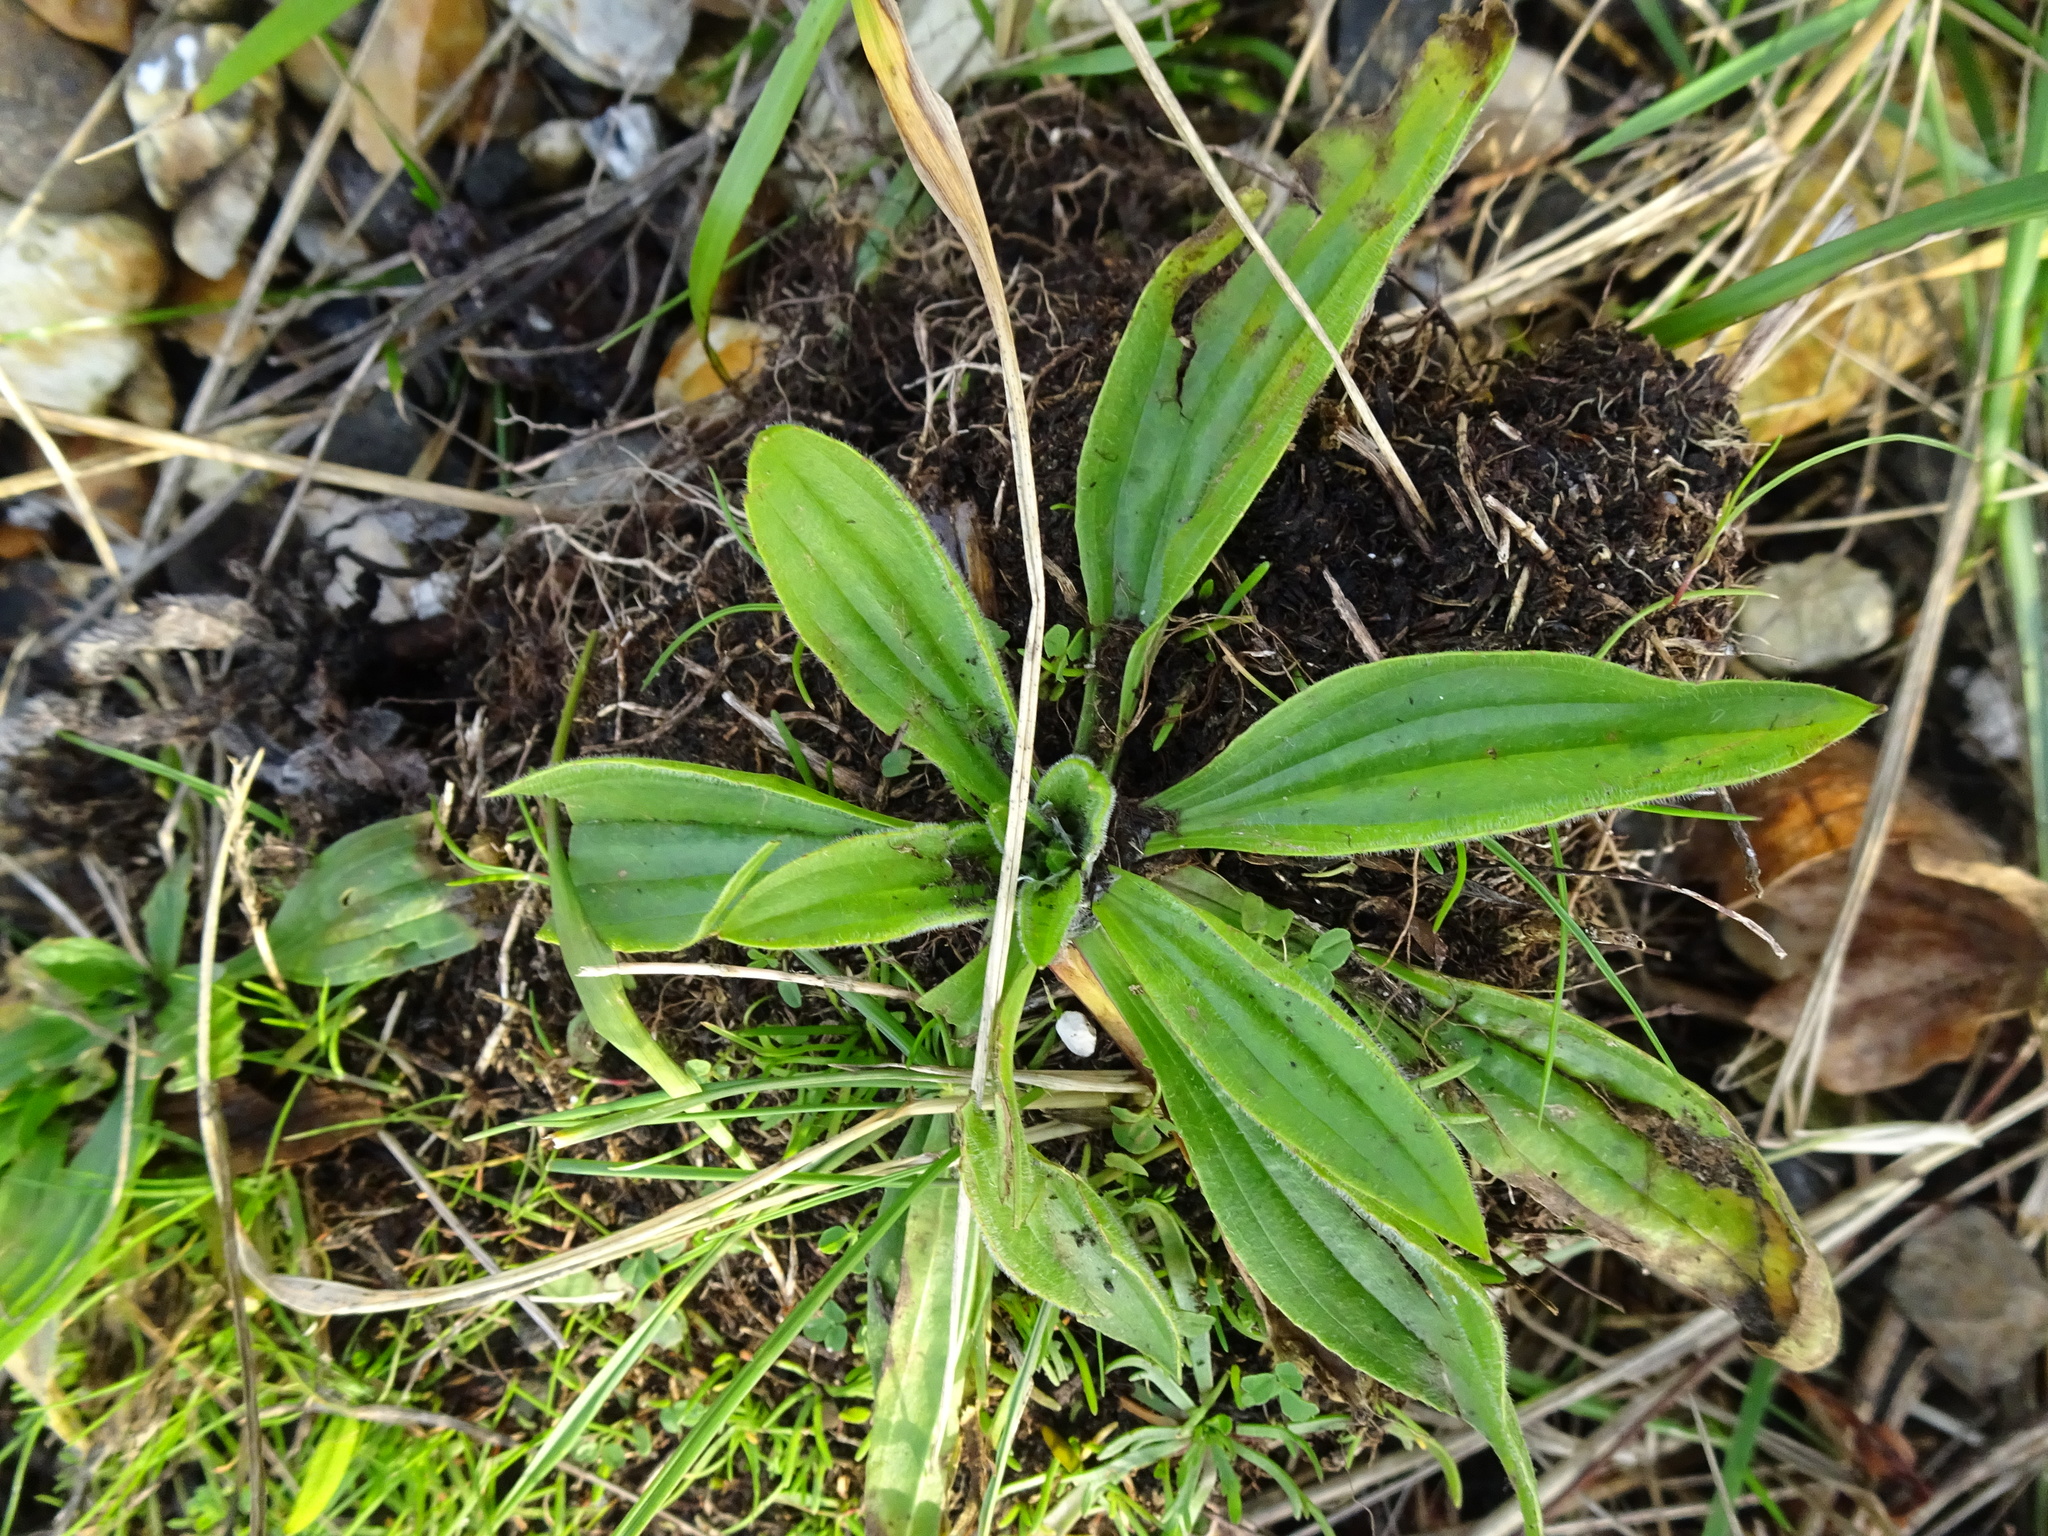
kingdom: Plantae
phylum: Tracheophyta
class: Magnoliopsida
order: Lamiales
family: Plantaginaceae
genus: Plantago
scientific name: Plantago lanceolata
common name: Ribwort plantain
